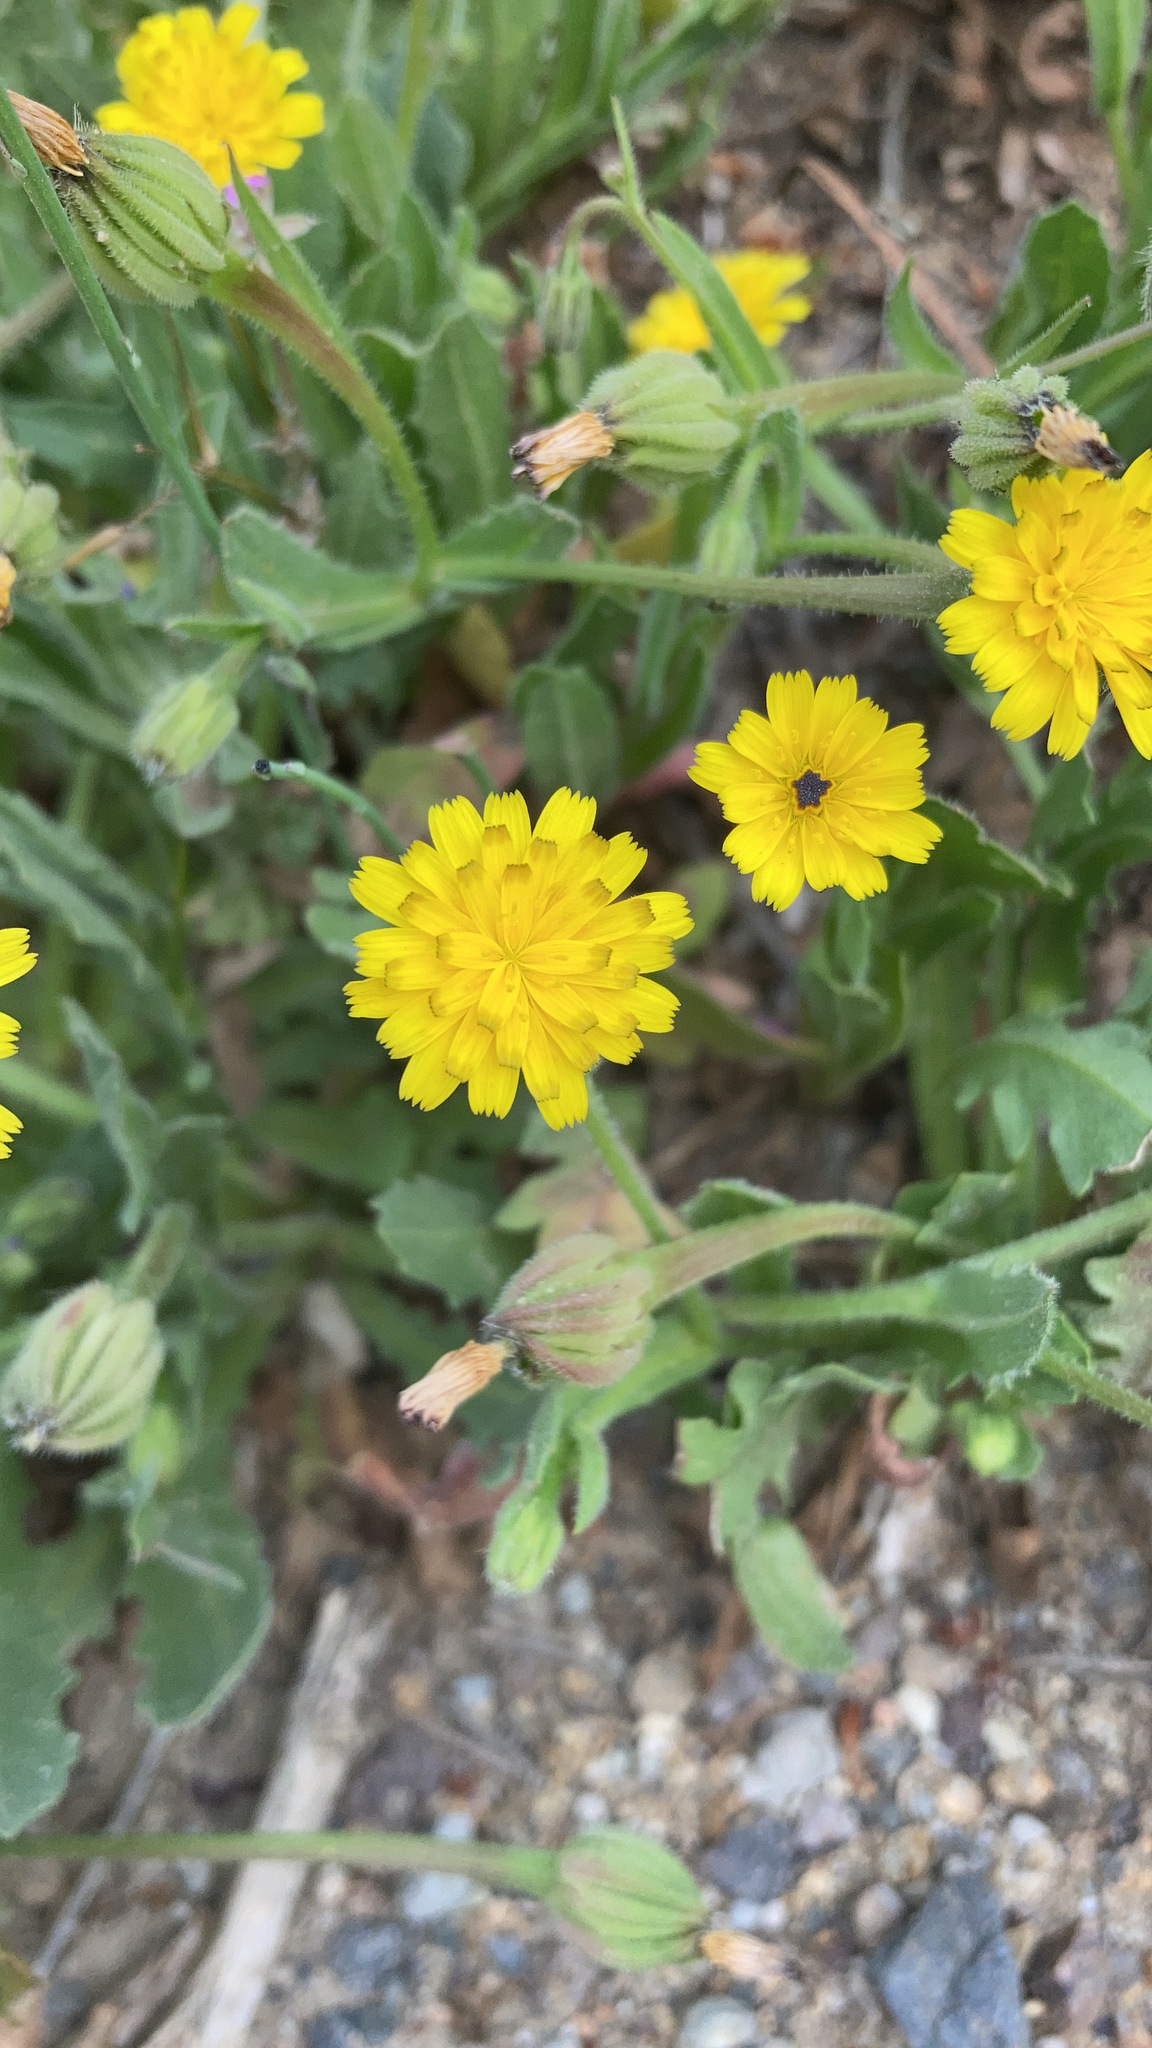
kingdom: Plantae
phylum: Tracheophyta
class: Magnoliopsida
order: Asterales
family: Asteraceae
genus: Hedypnois
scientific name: Hedypnois rhagadioloides
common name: Cretan weed
